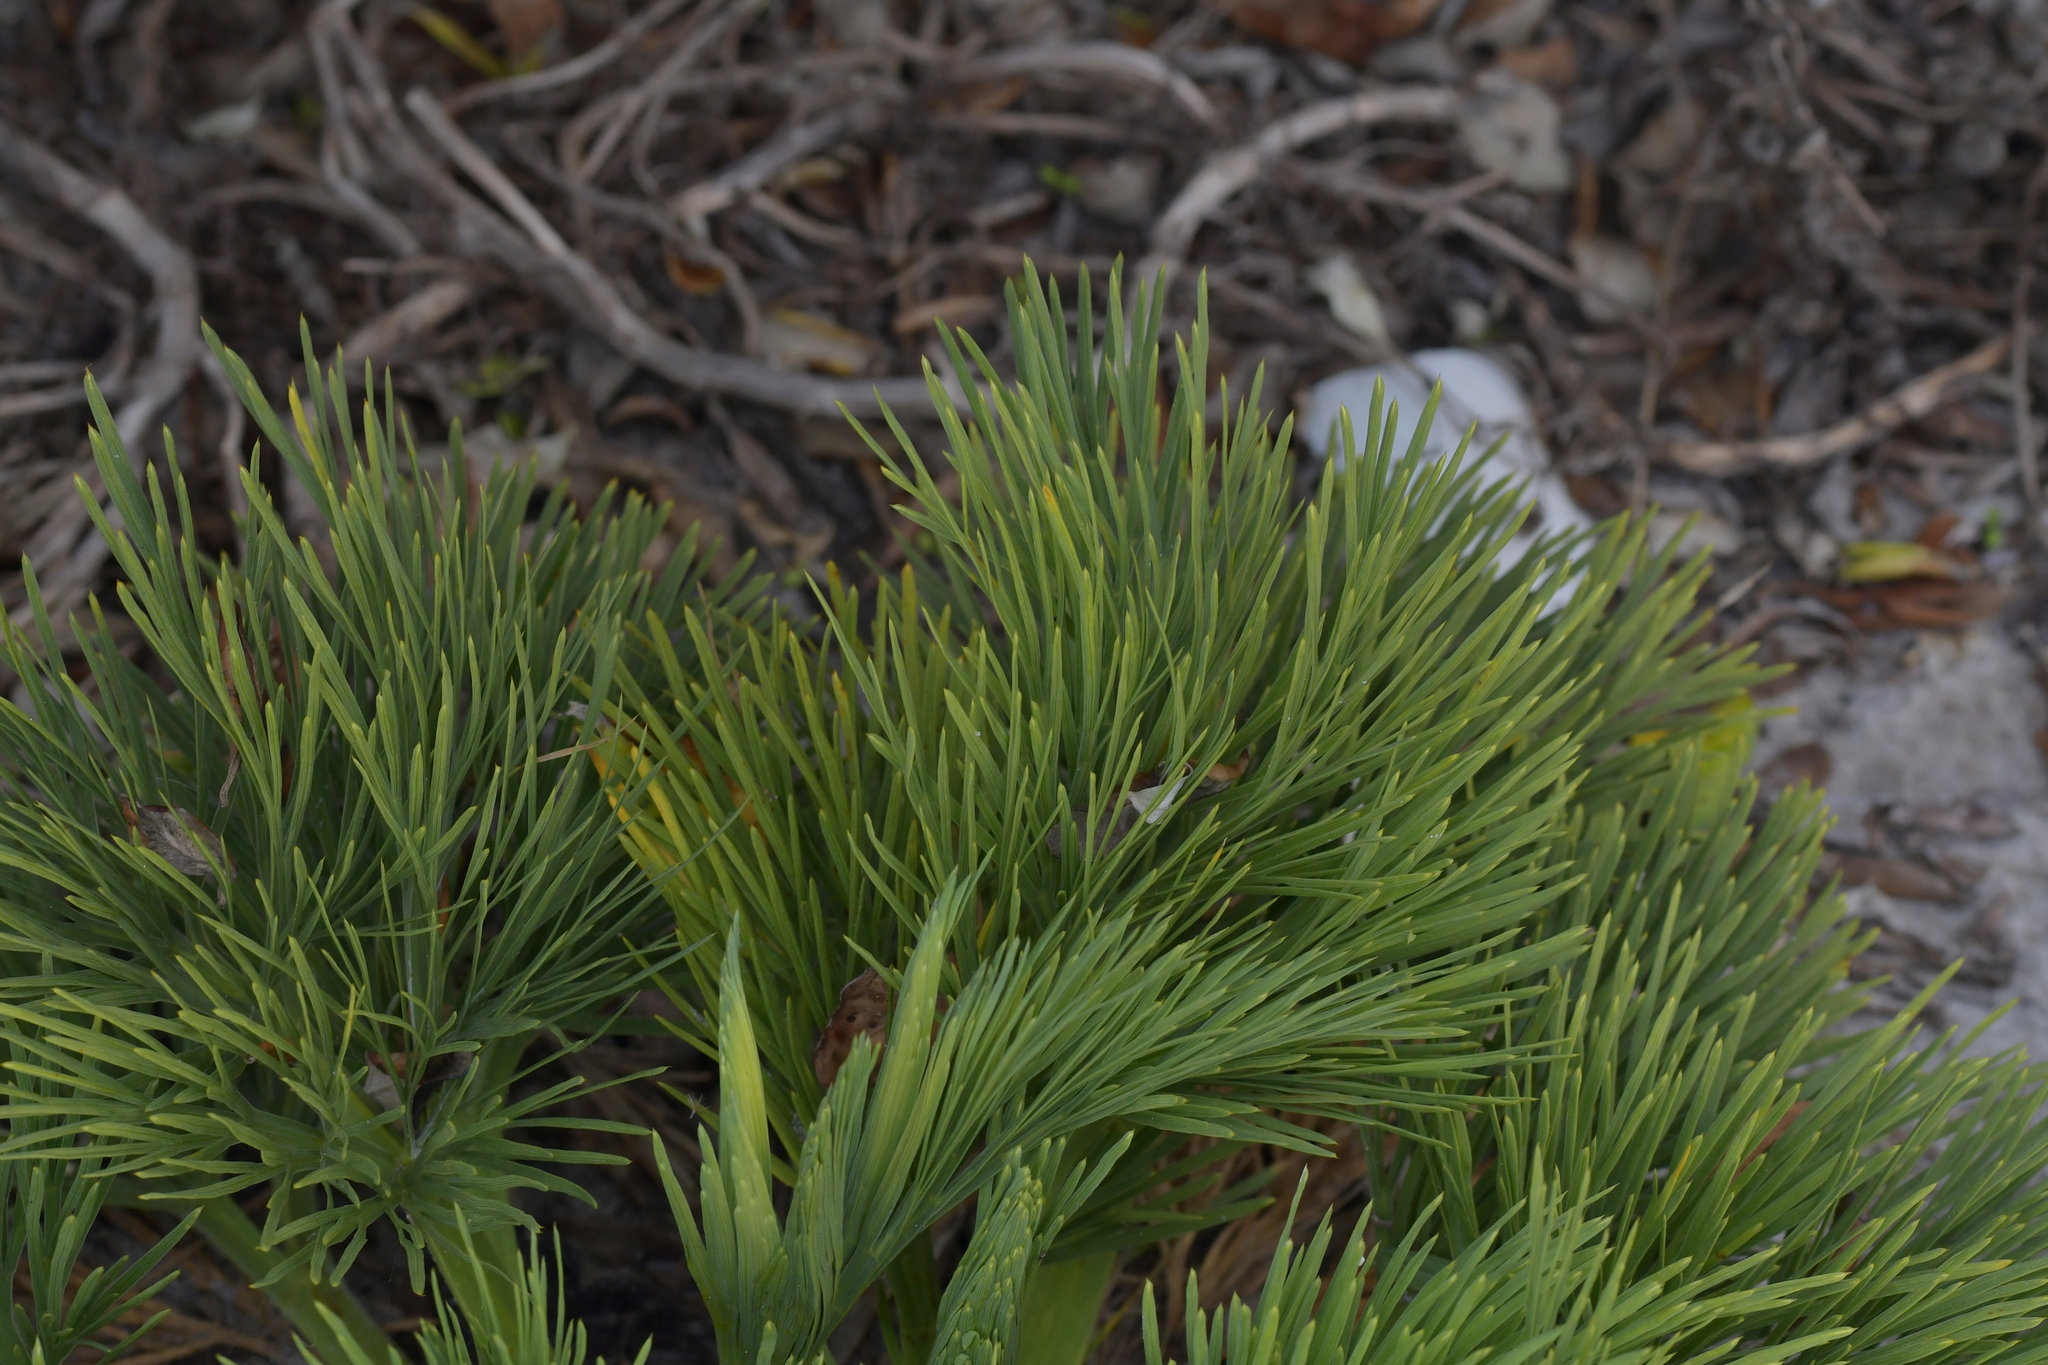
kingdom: Plantae
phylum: Tracheophyta
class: Magnoliopsida
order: Apiales
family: Apiaceae
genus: Aciphylla
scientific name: Aciphylla dieffenbachii
